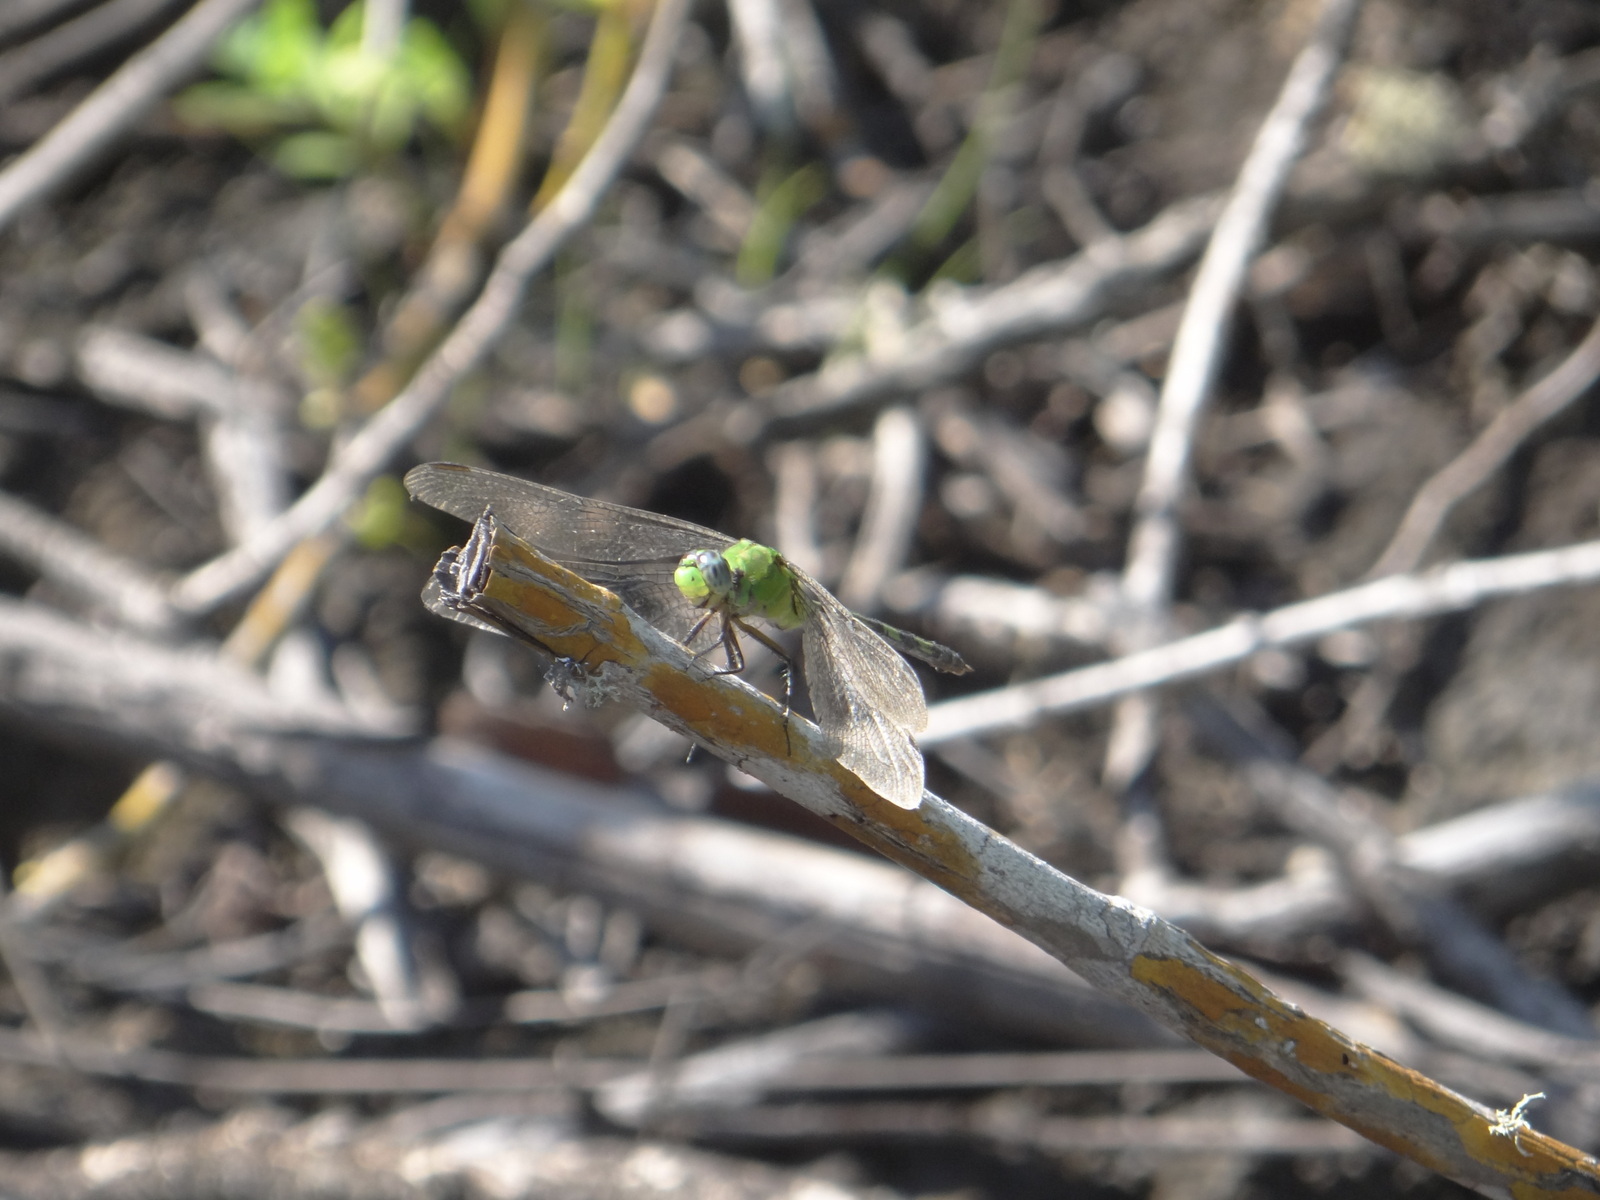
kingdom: Animalia
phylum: Arthropoda
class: Insecta
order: Odonata
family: Libellulidae
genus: Erythemis
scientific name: Erythemis vesiculosa
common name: Great pondhawk
